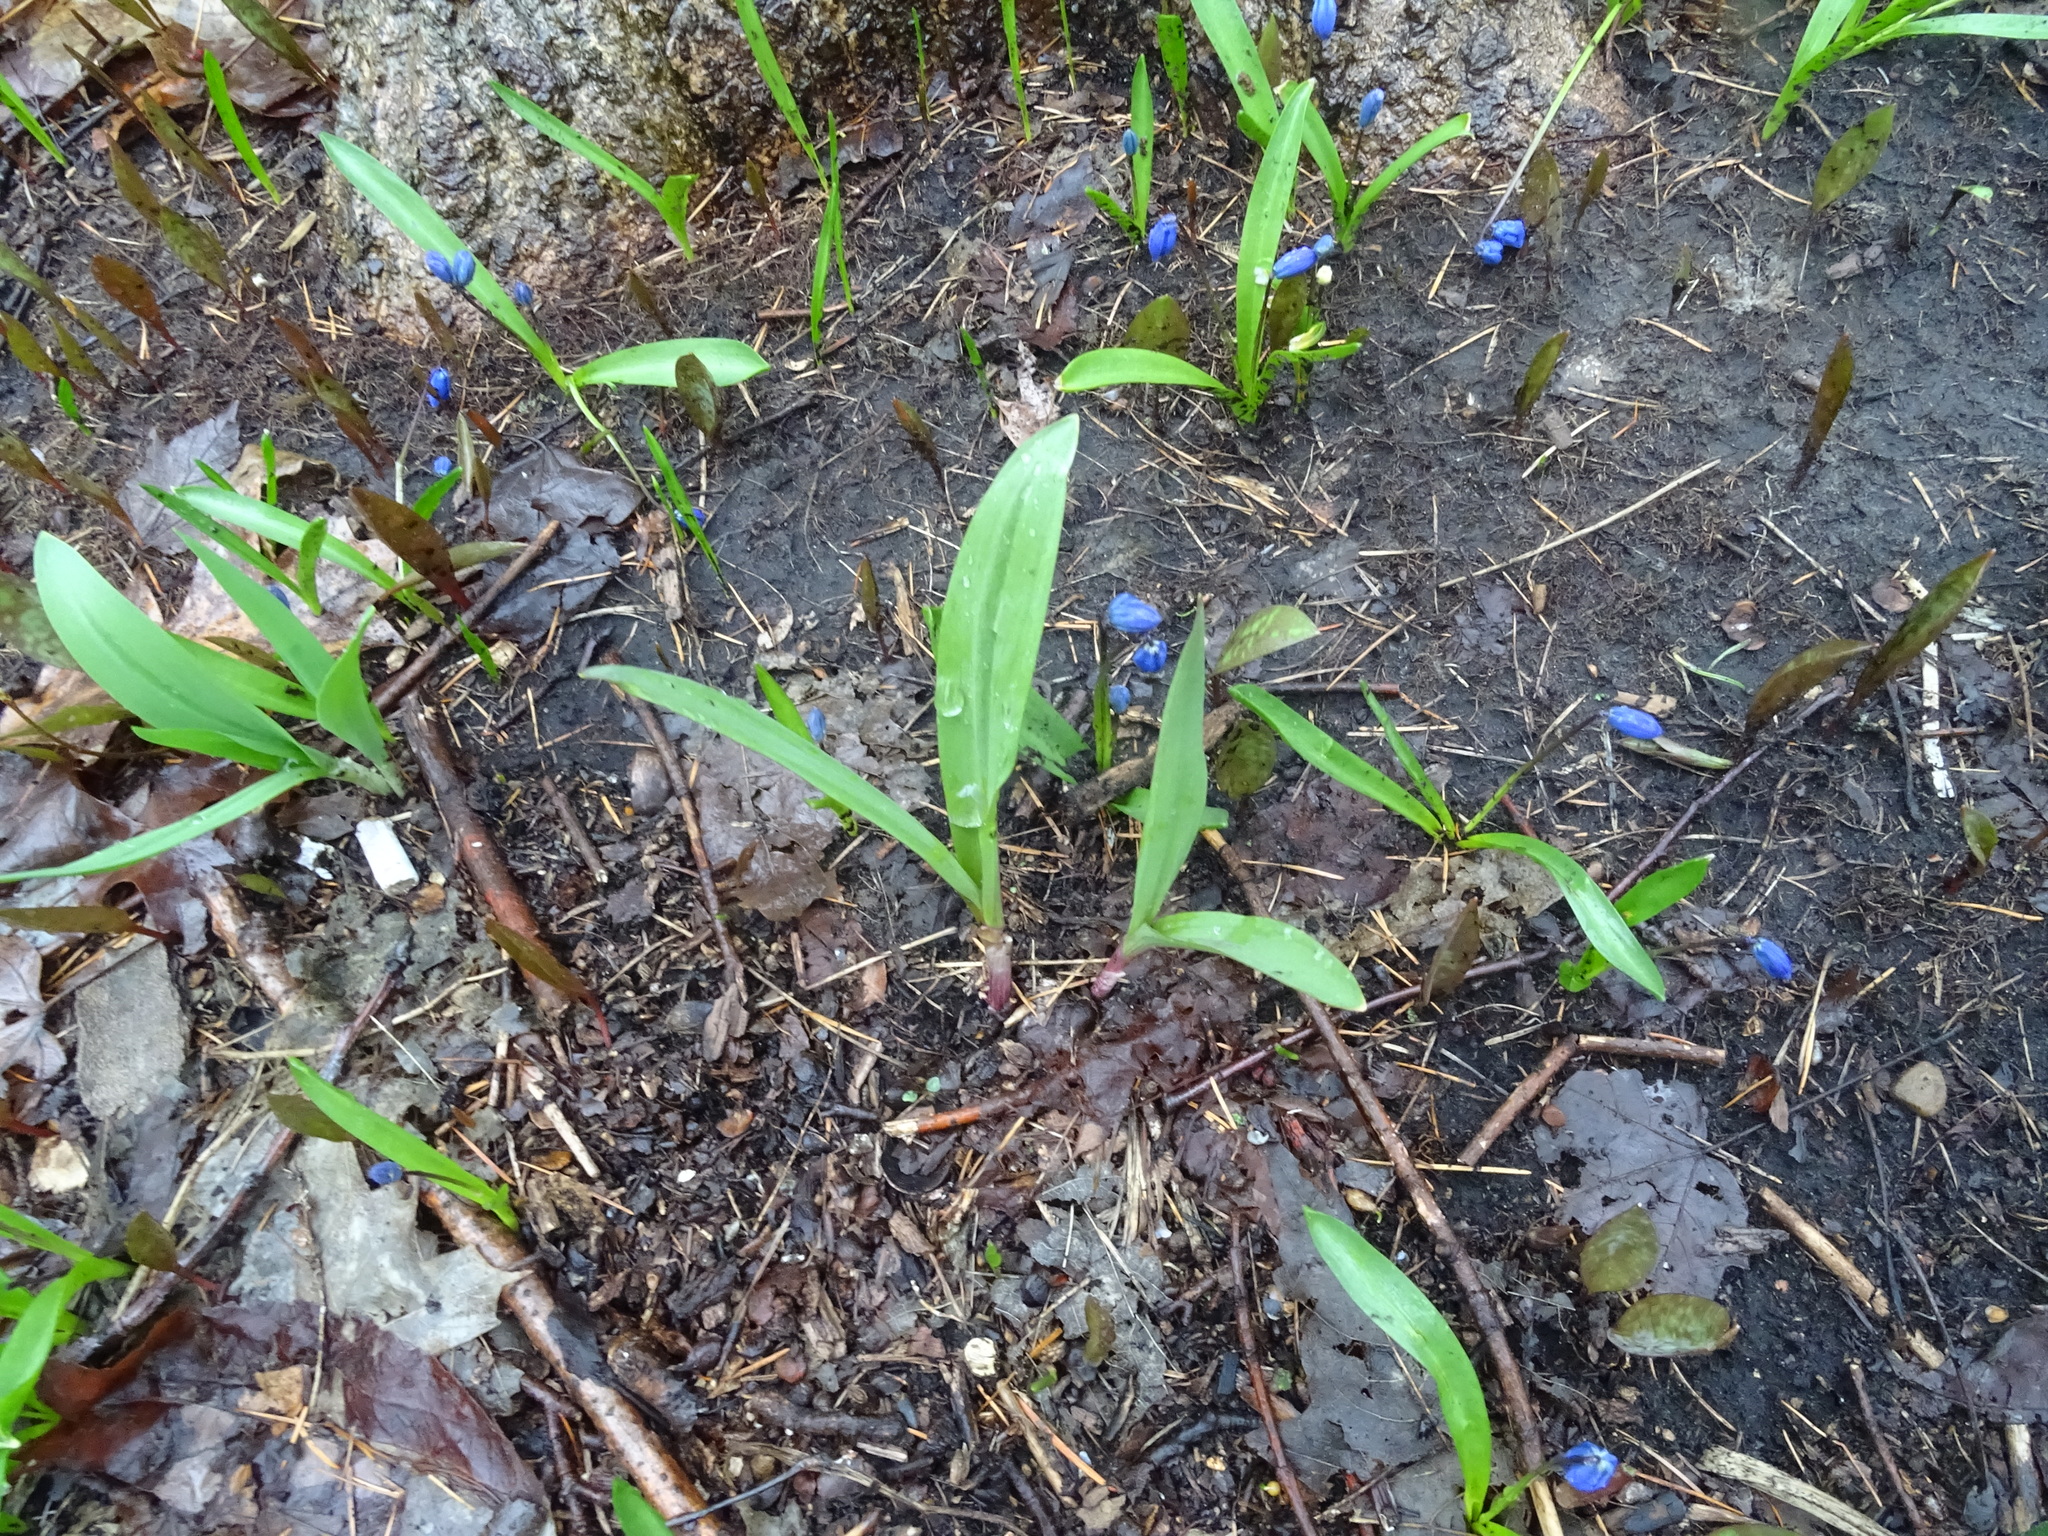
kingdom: Plantae
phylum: Tracheophyta
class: Liliopsida
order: Asparagales
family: Amaryllidaceae
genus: Allium
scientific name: Allium tricoccum
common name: Ramp
